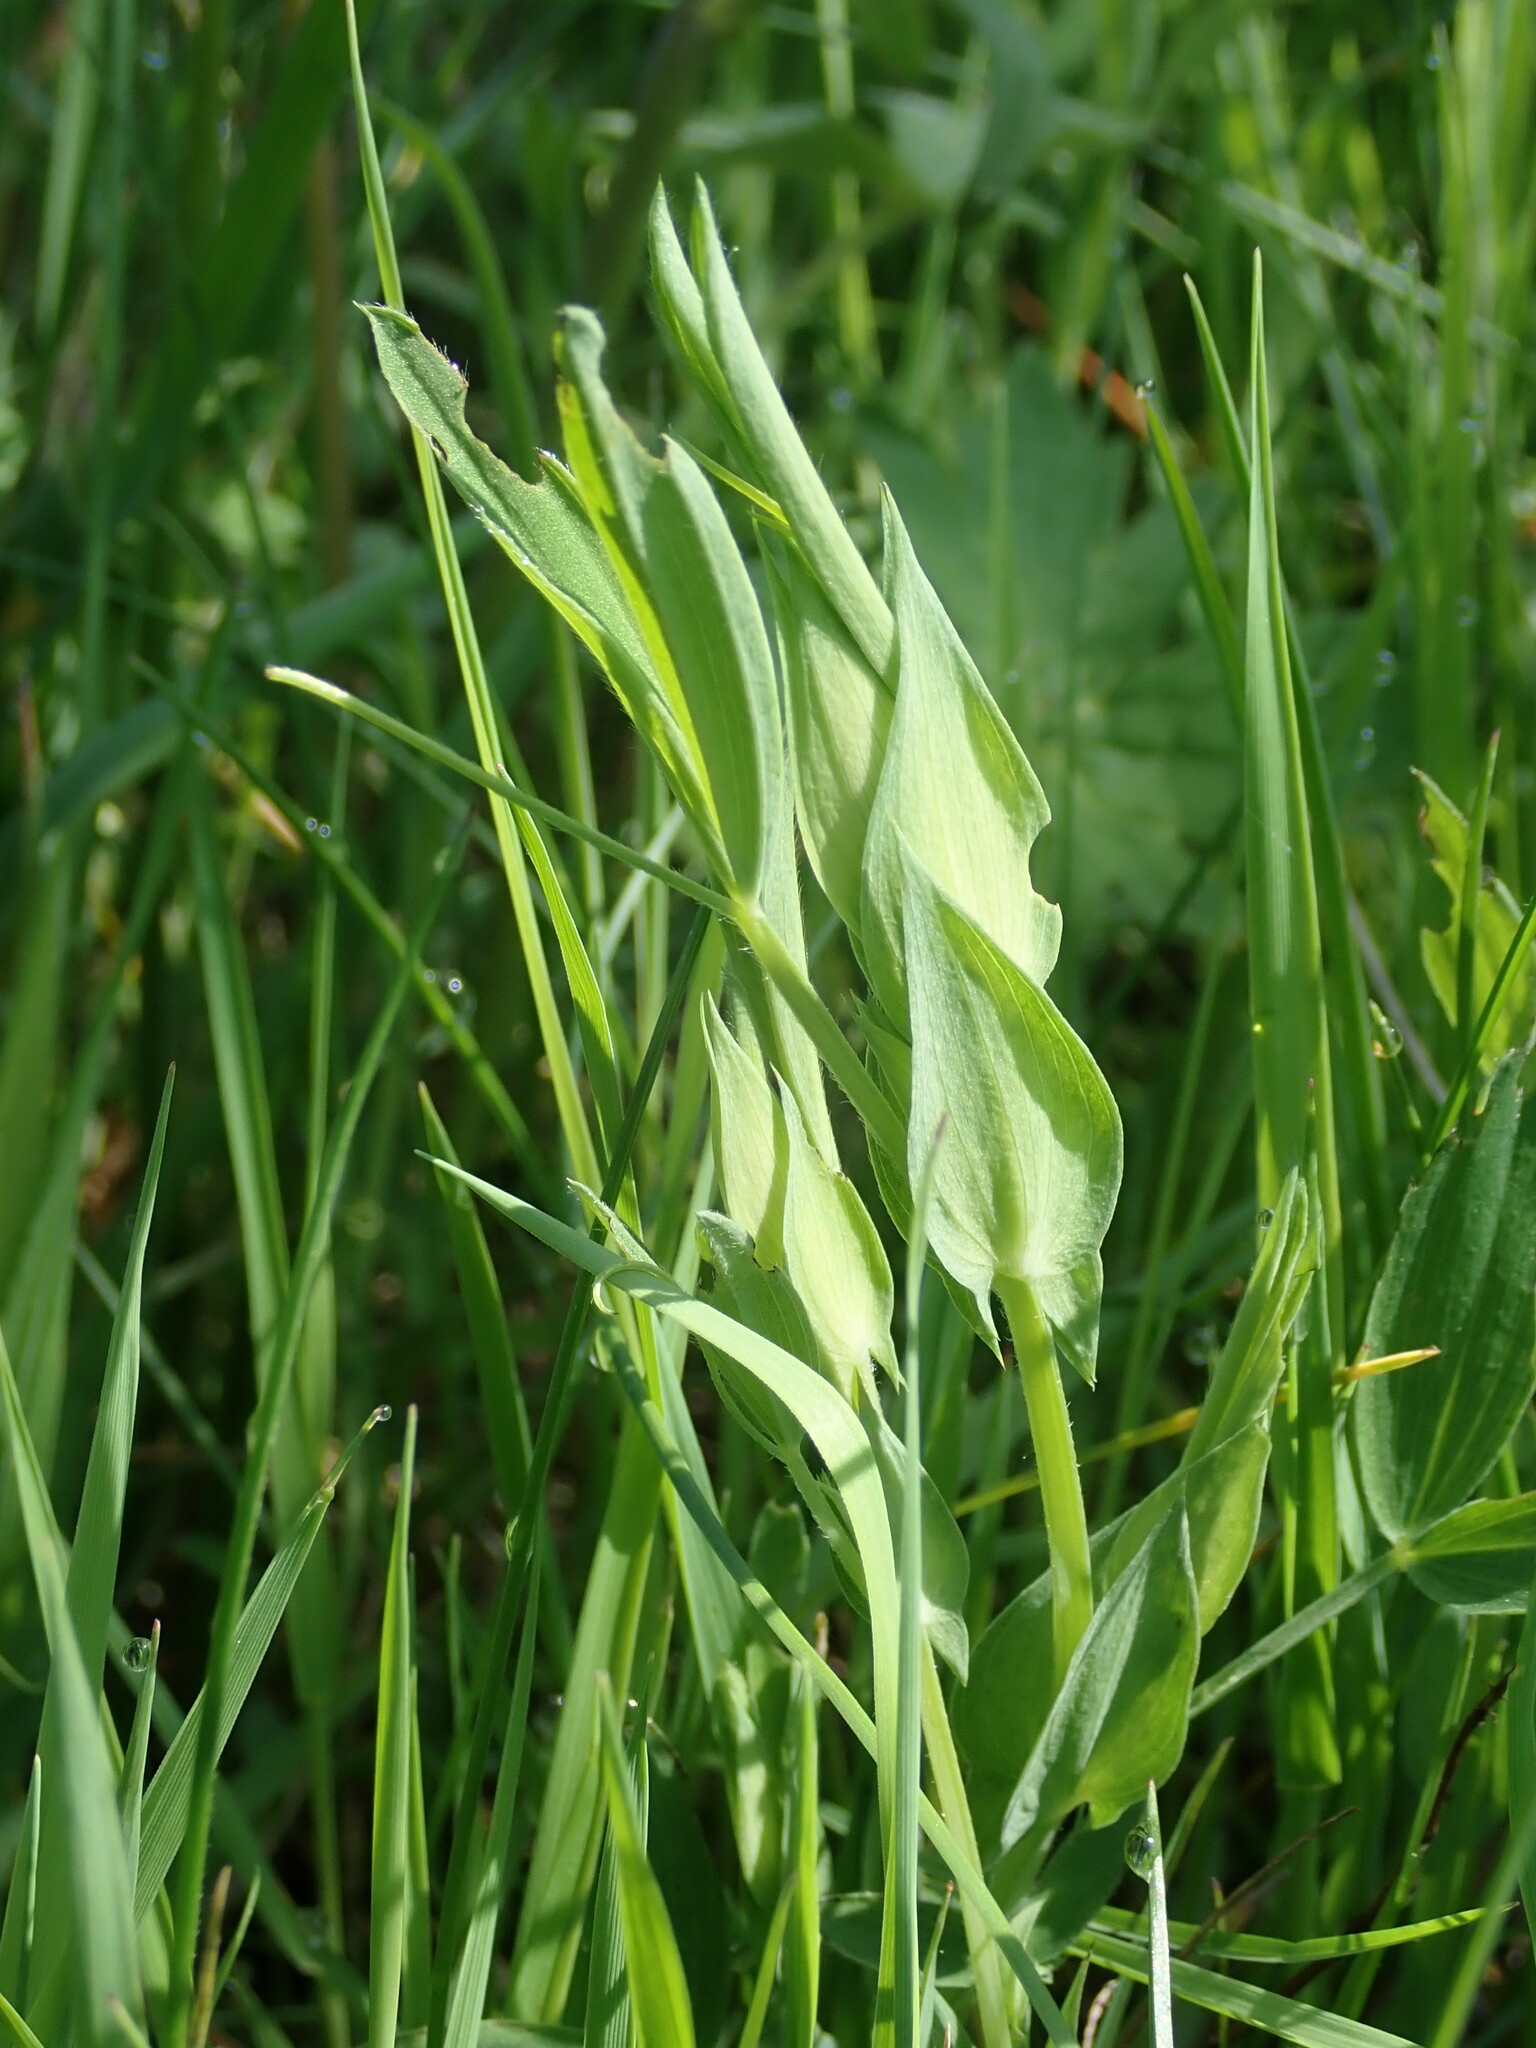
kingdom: Plantae
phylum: Tracheophyta
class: Magnoliopsida
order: Fabales
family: Fabaceae
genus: Lathyrus
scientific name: Lathyrus pratensis
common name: Meadow vetchling
